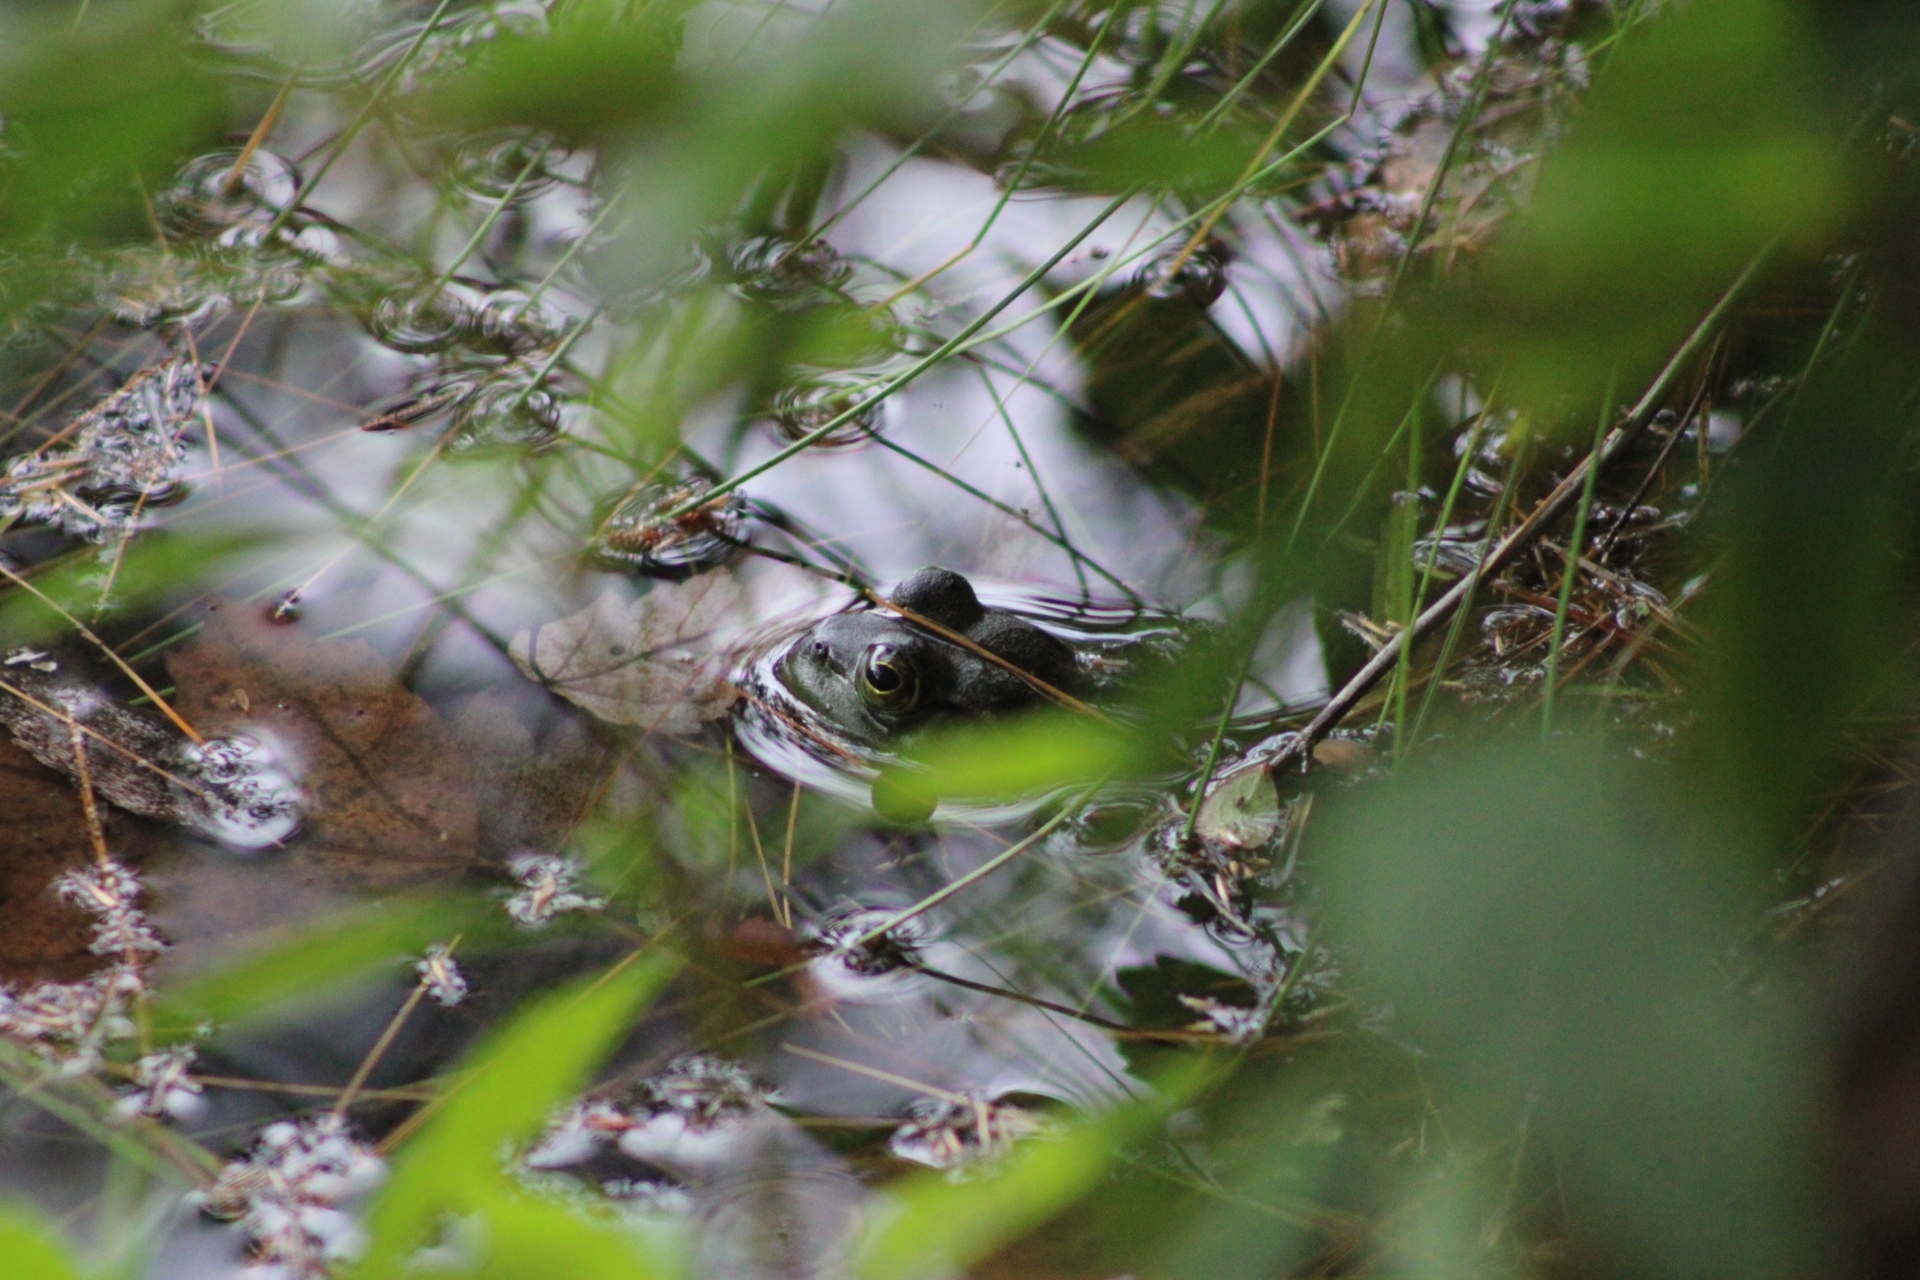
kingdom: Animalia
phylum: Chordata
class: Amphibia
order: Anura
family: Ranidae
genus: Lithobates
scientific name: Lithobates catesbeianus
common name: American bullfrog
